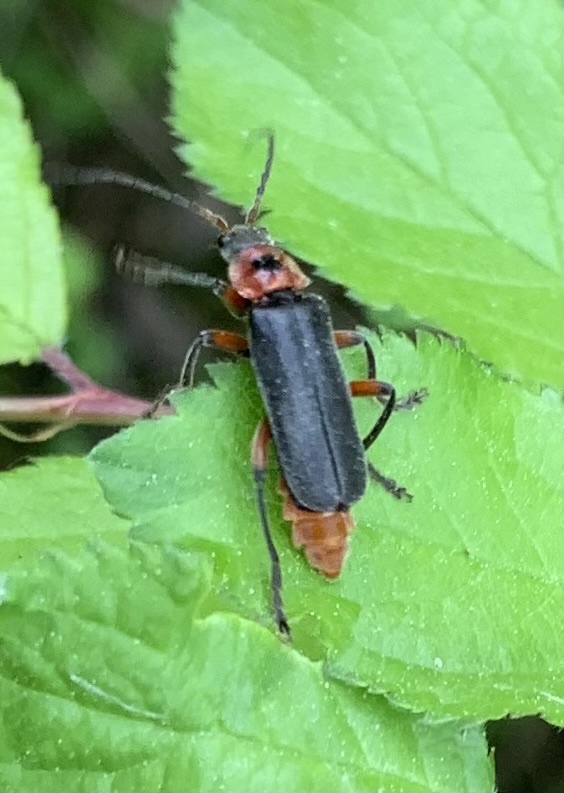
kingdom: Animalia
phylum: Arthropoda
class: Insecta
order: Coleoptera
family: Cantharidae
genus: Cantharis
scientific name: Cantharis rustica
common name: Soldier beetle
